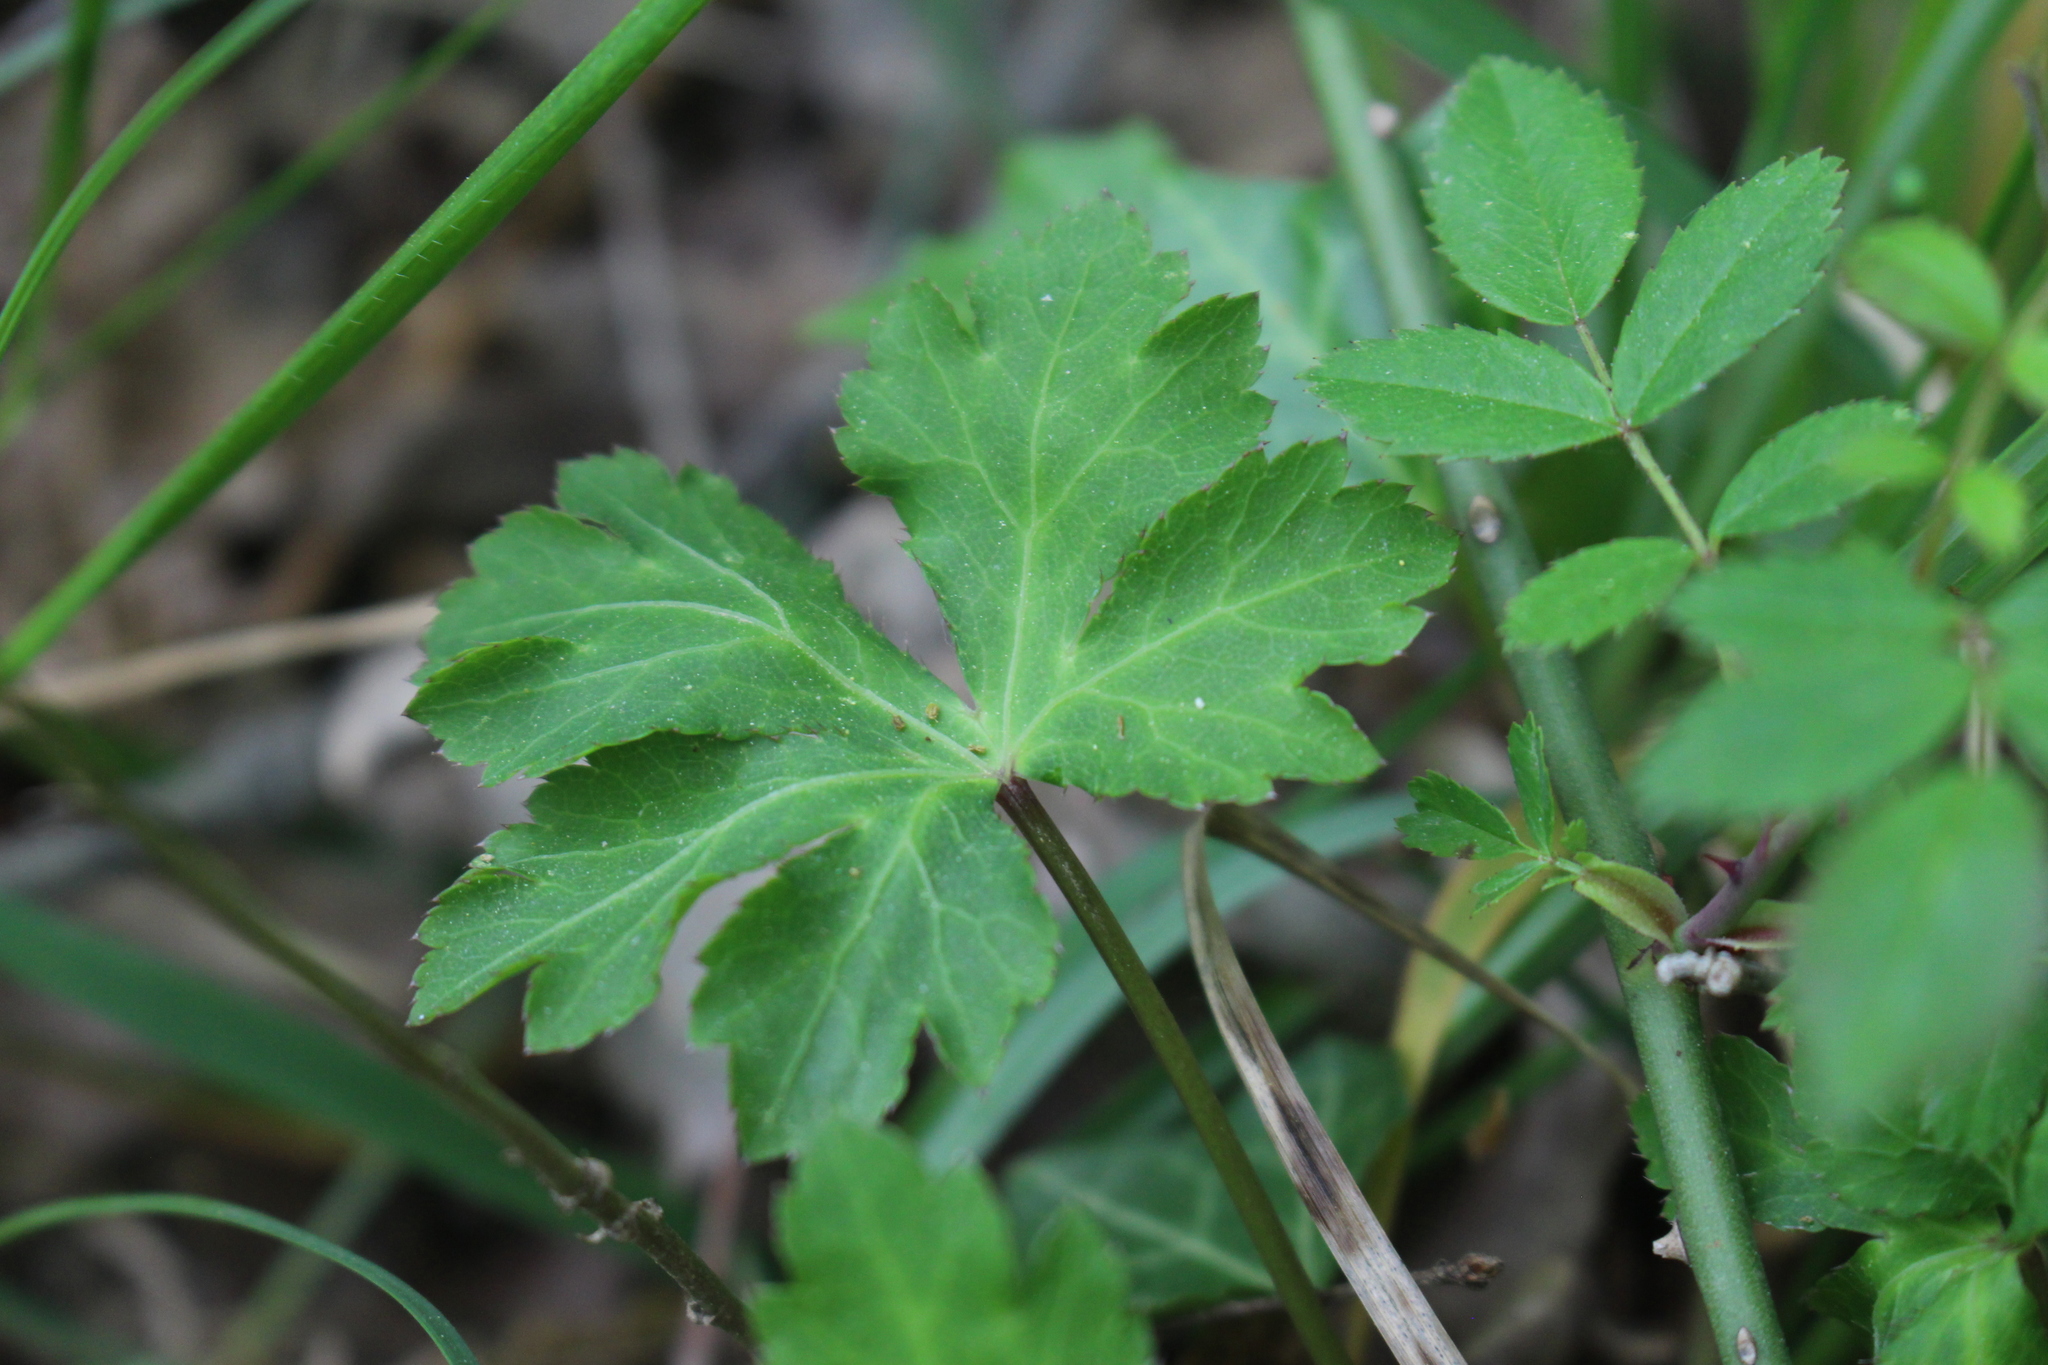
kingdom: Plantae
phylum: Tracheophyta
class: Magnoliopsida
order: Apiales
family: Apiaceae
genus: Sanicula
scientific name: Sanicula europaea
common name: Sanicle
